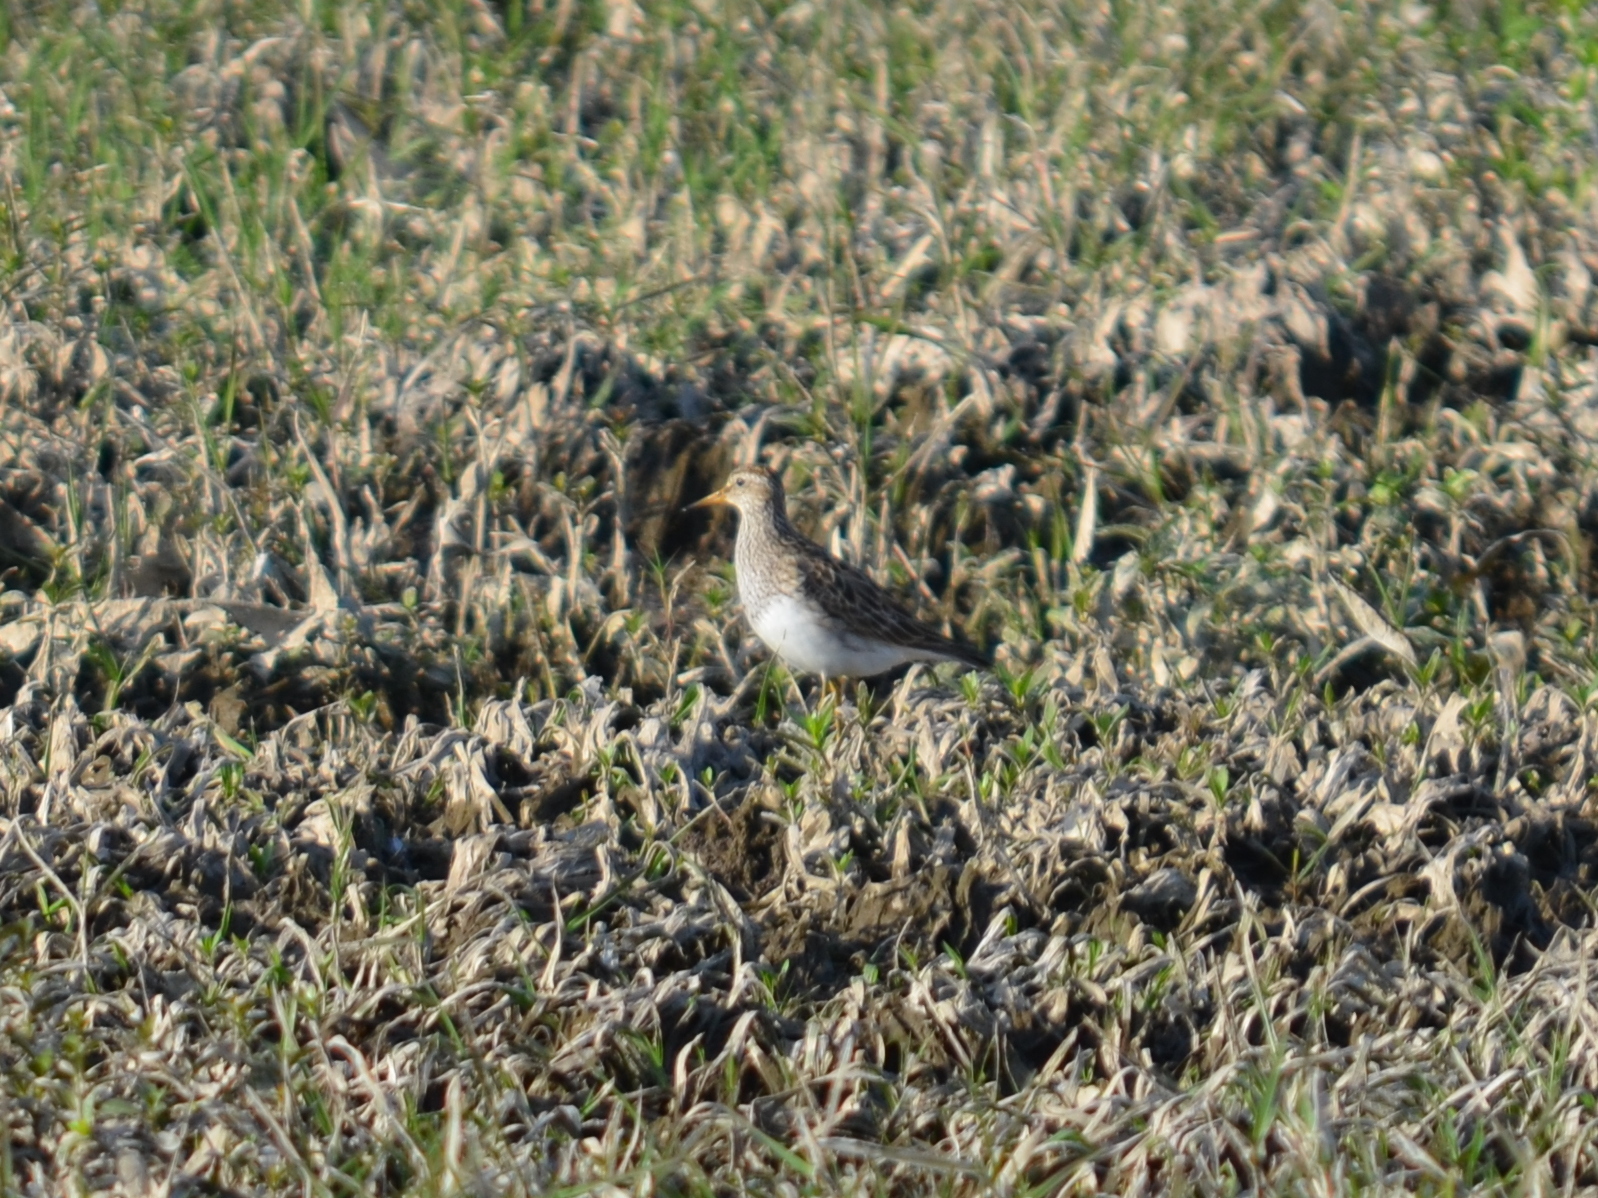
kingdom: Animalia
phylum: Chordata
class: Aves
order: Charadriiformes
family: Scolopacidae
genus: Calidris
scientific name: Calidris melanotos
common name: Pectoral sandpiper
